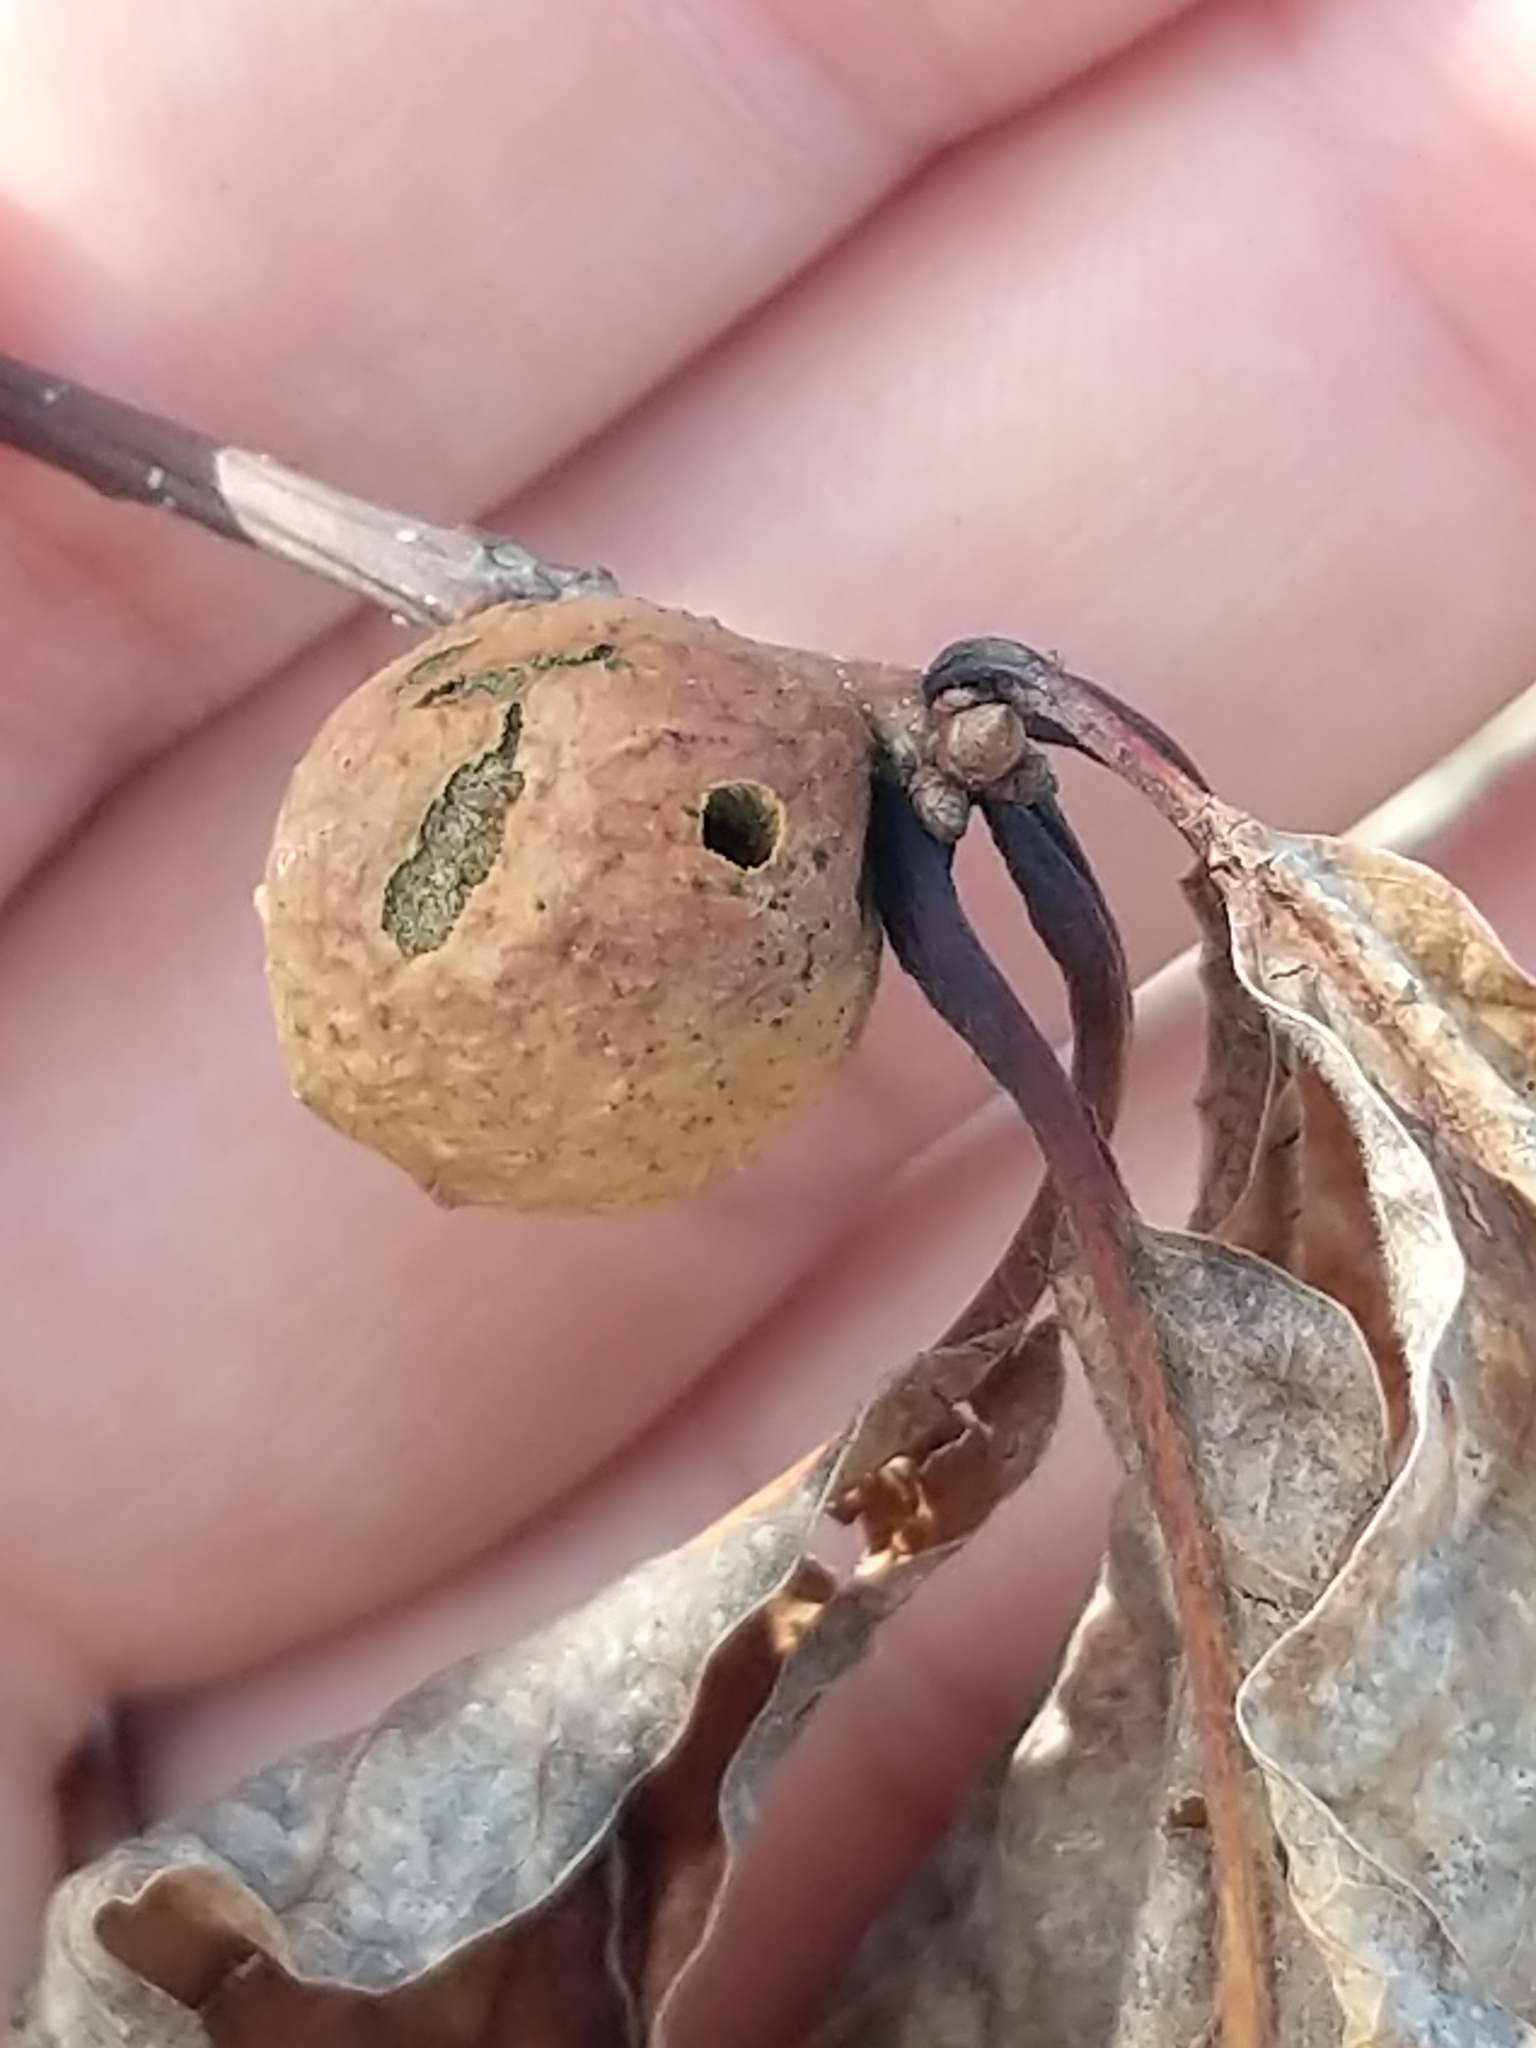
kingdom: Animalia
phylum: Arthropoda
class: Insecta
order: Hymenoptera
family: Cynipidae
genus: Disholcaspis
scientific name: Disholcaspis quercusglobulus
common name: Round bullet gall wasp
